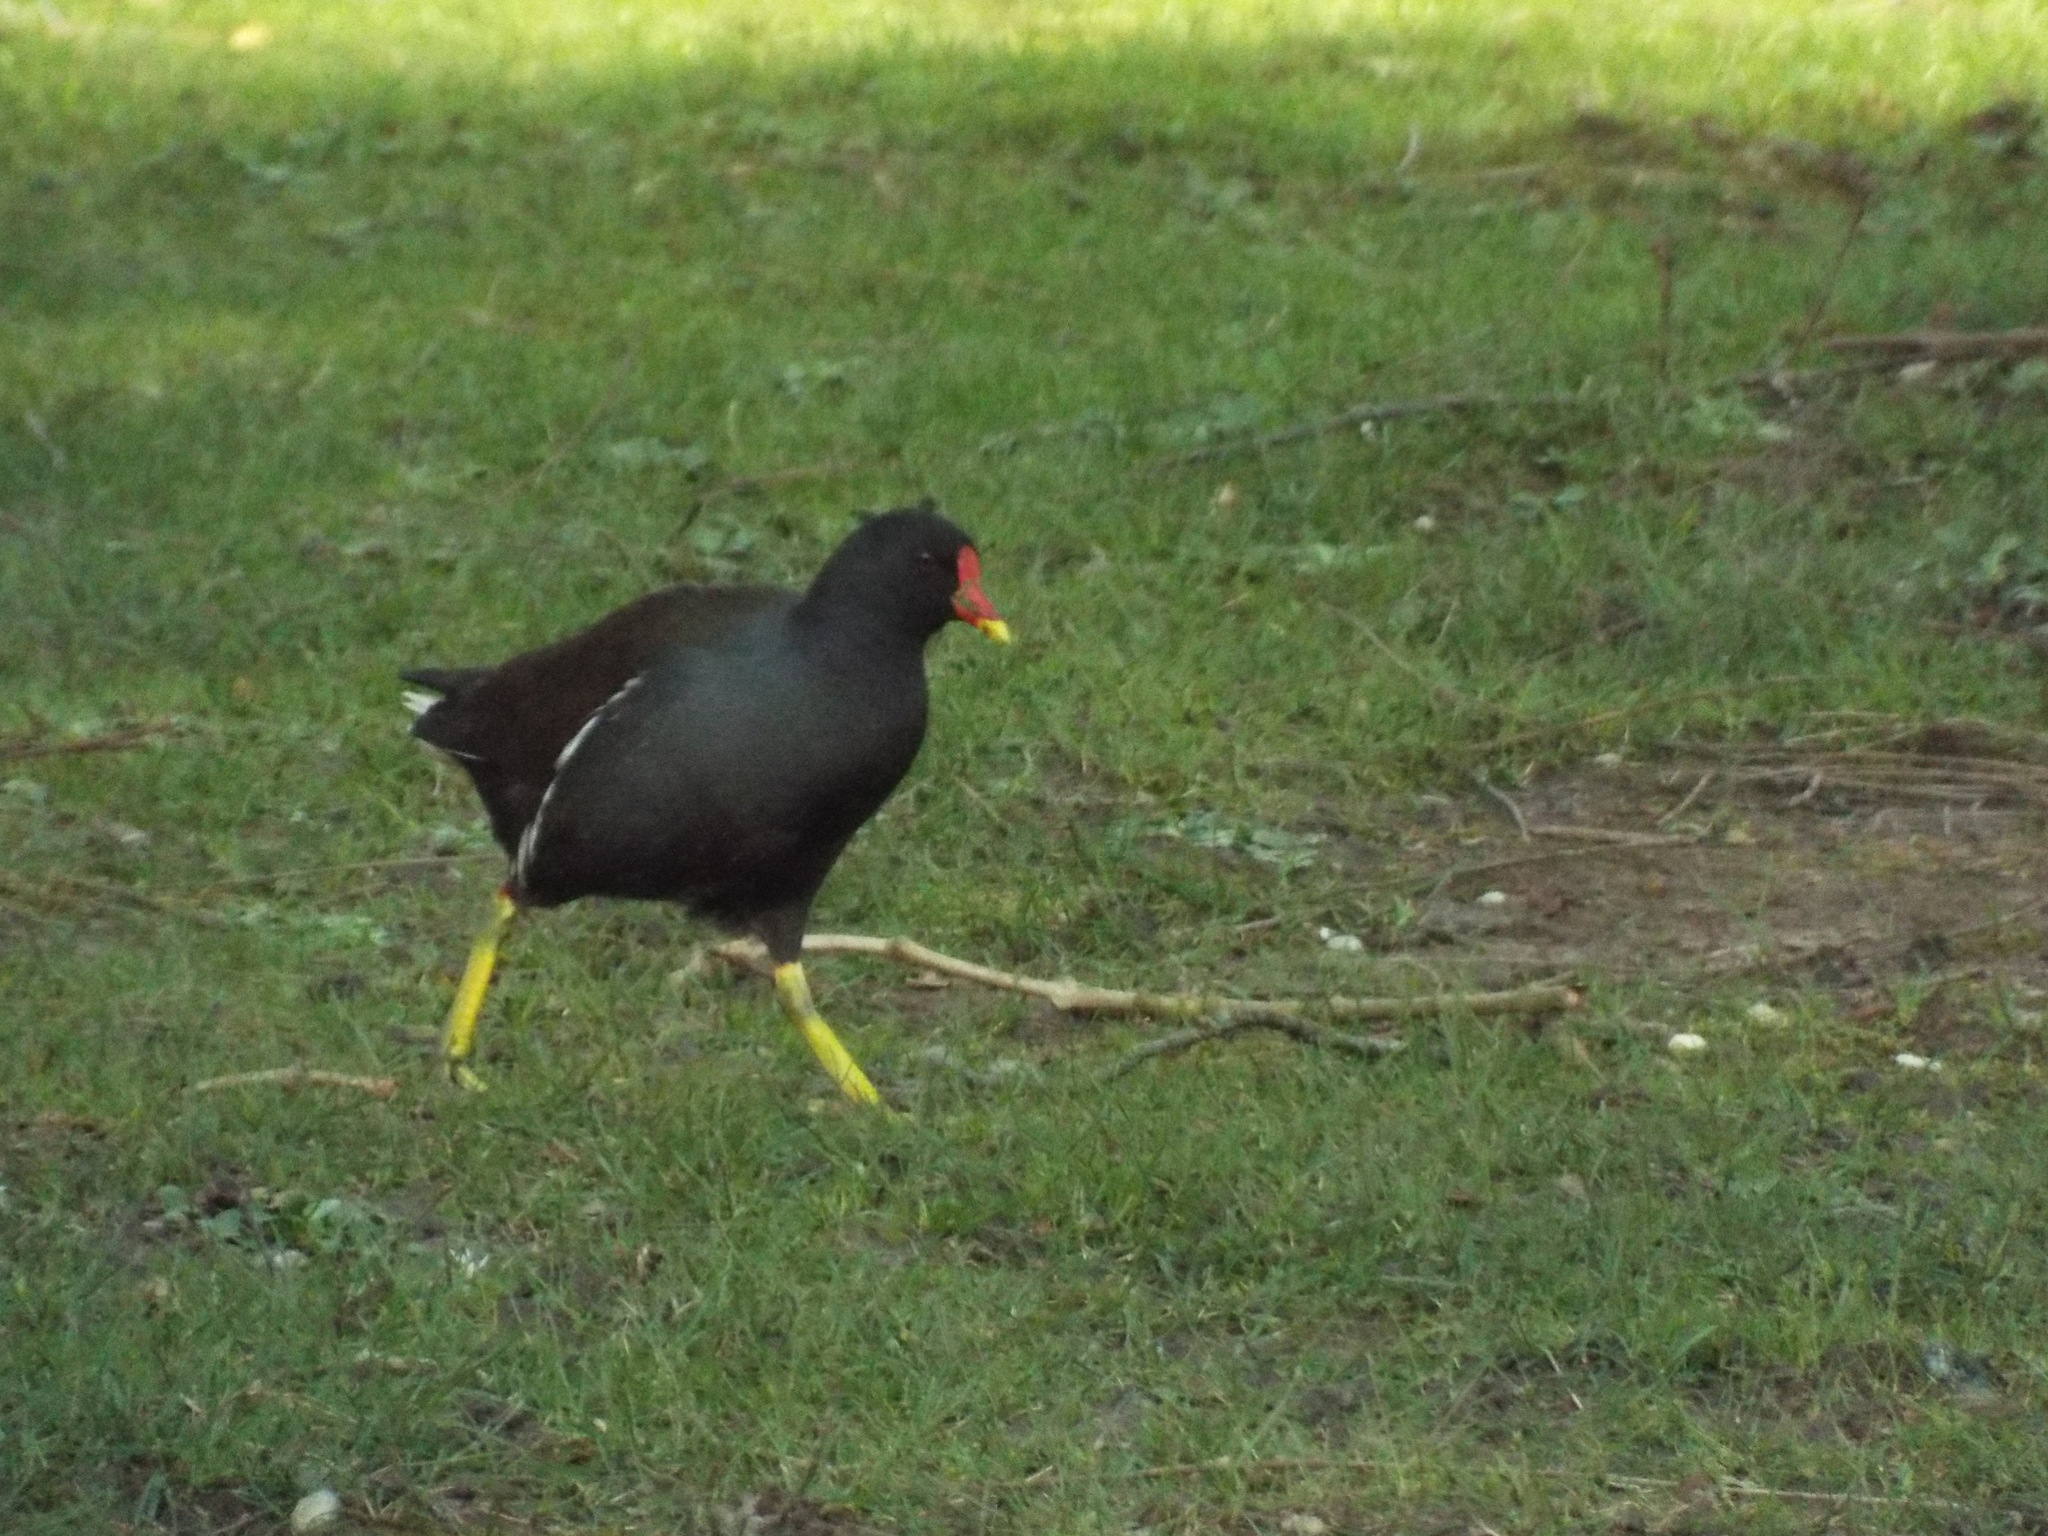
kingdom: Animalia
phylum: Chordata
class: Aves
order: Gruiformes
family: Rallidae
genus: Gallinula
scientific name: Gallinula chloropus
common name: Common moorhen
